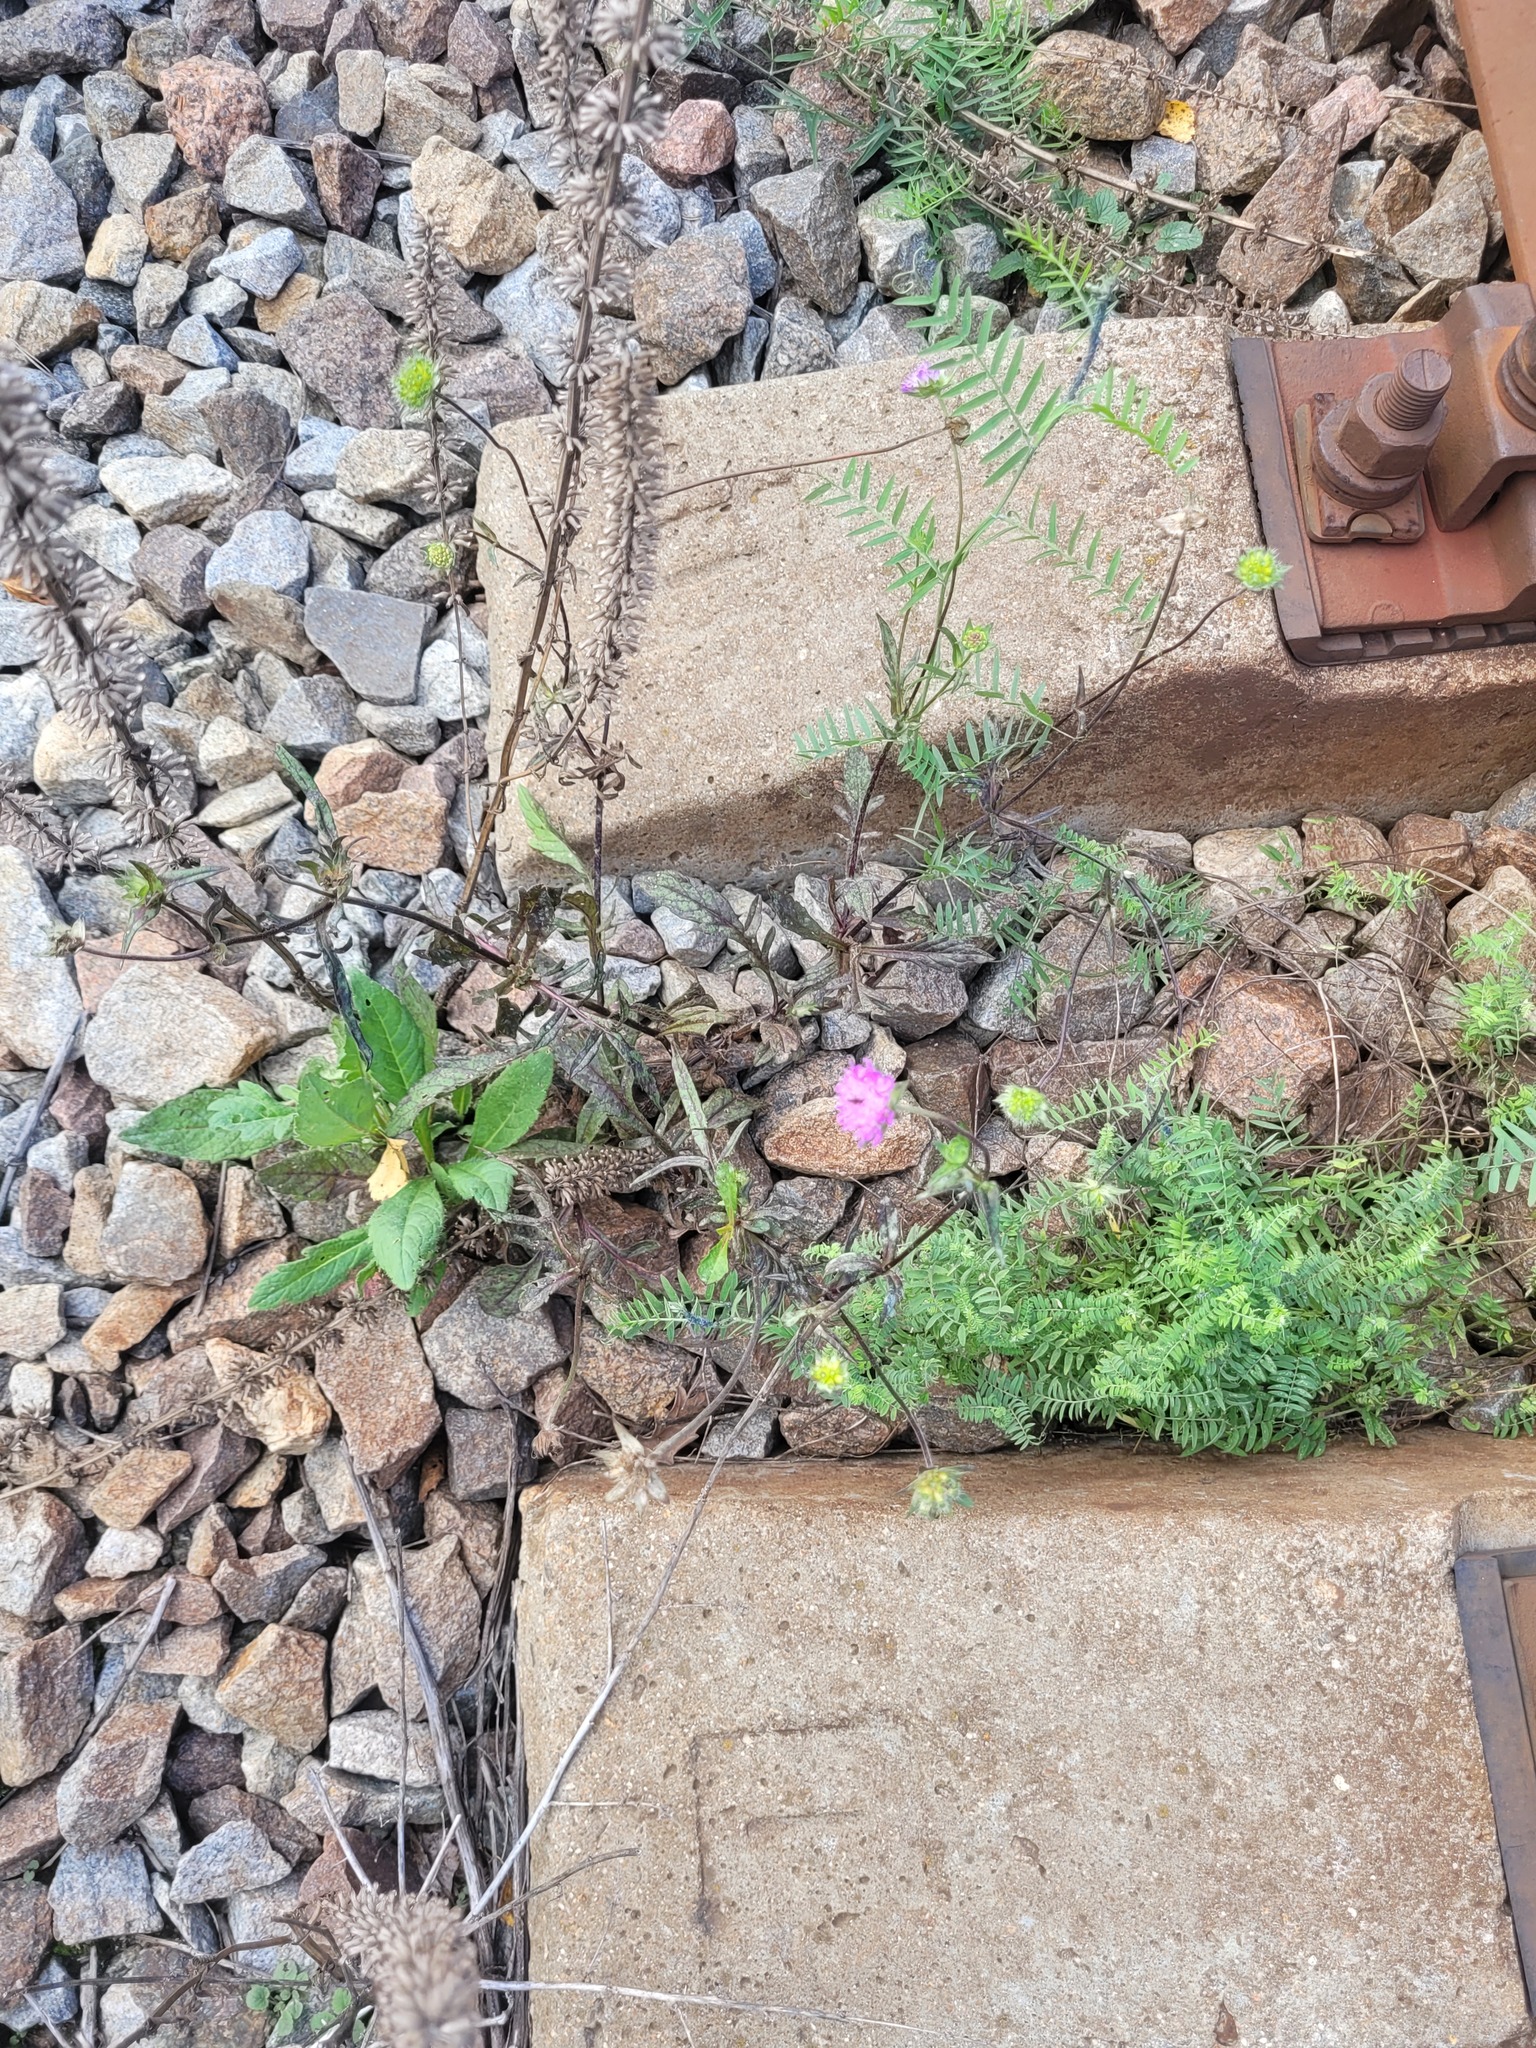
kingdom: Plantae
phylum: Tracheophyta
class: Magnoliopsida
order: Dipsacales
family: Caprifoliaceae
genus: Knautia
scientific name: Knautia arvensis
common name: Field scabiosa
